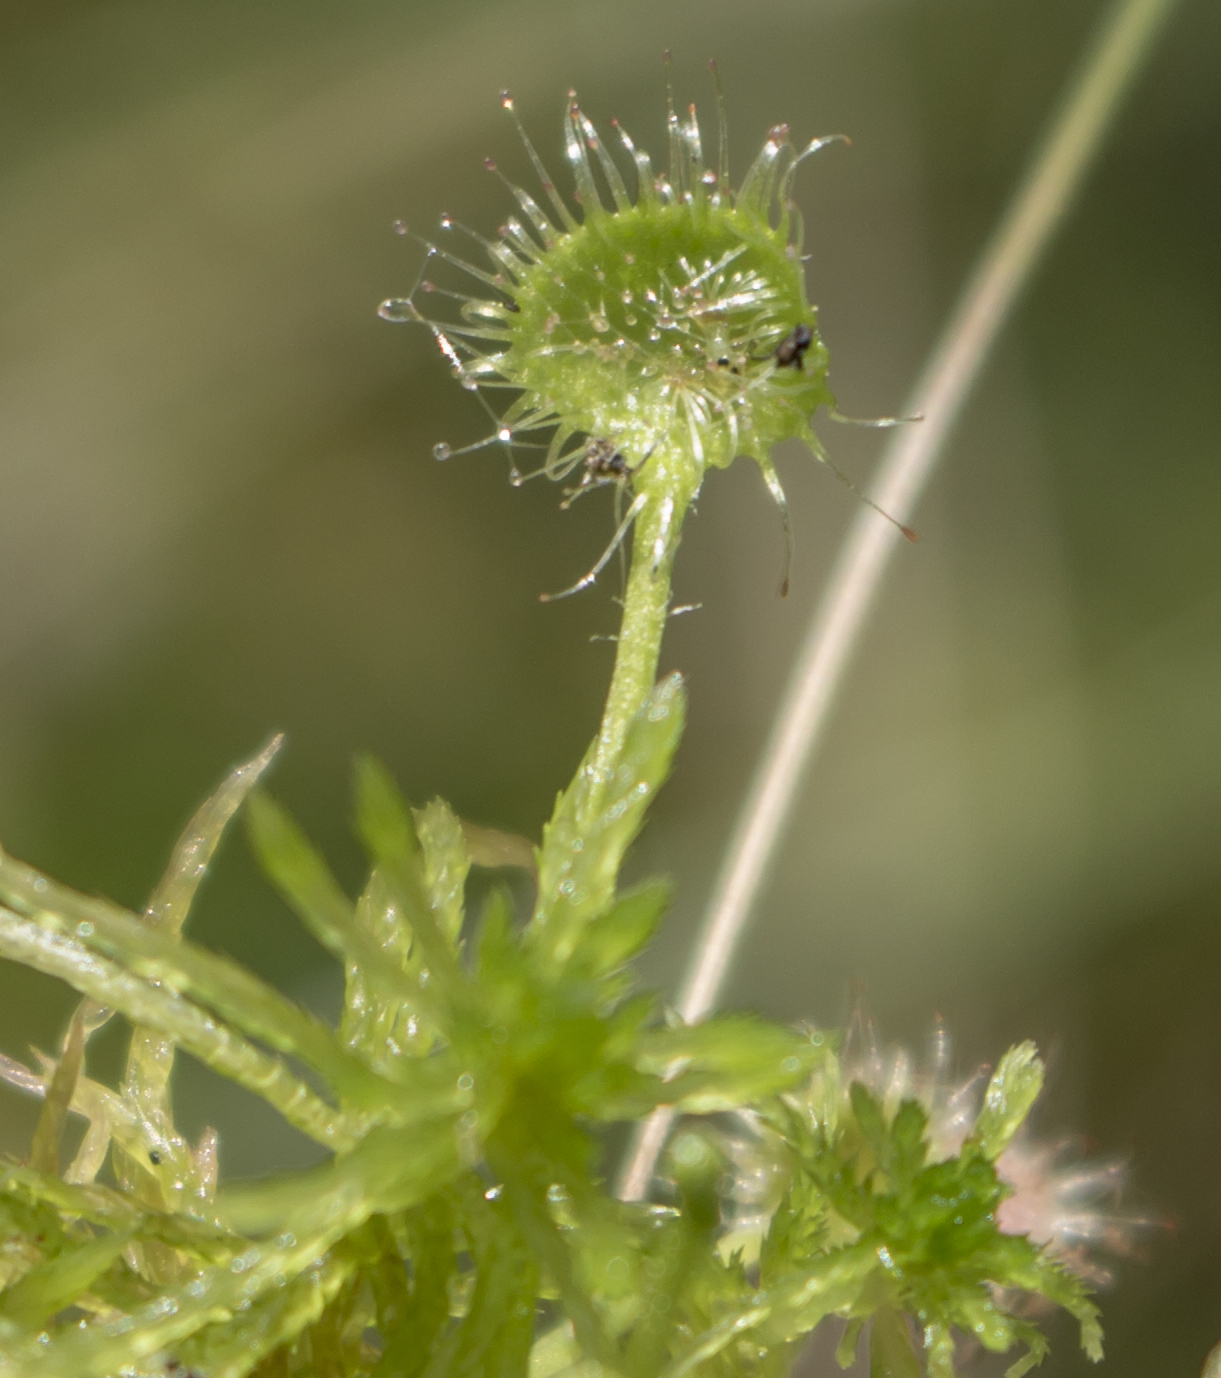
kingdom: Plantae
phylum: Tracheophyta
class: Magnoliopsida
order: Caryophyllales
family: Droseraceae
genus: Drosera
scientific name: Drosera rotundifolia
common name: Round-leaved sundew
